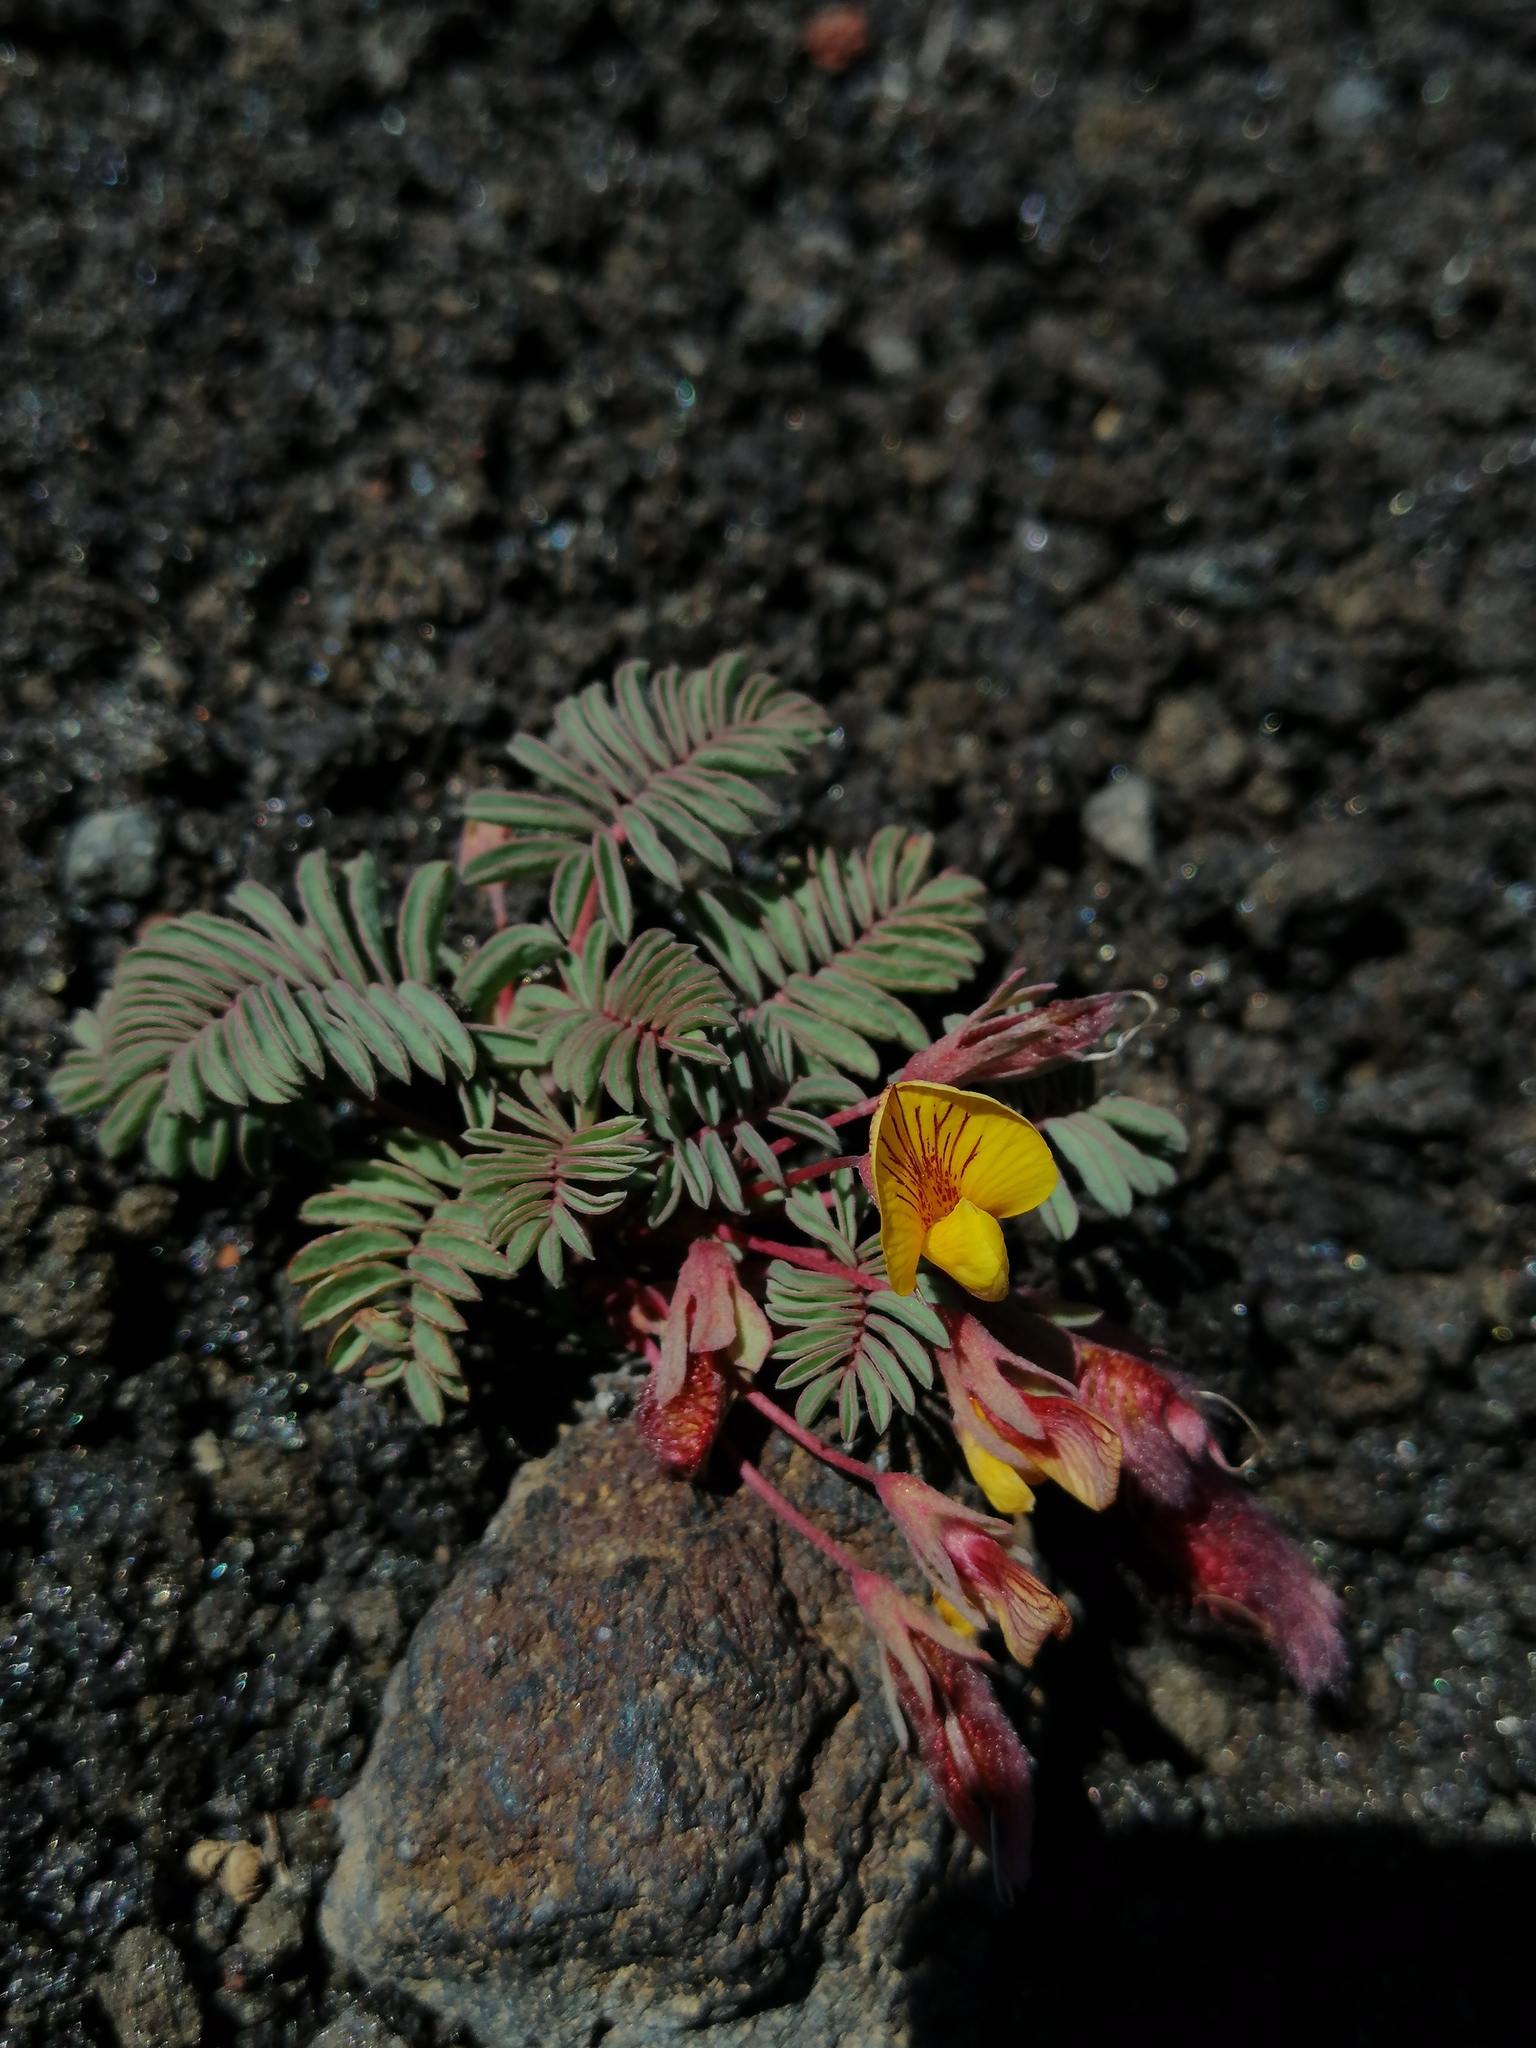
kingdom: Plantae
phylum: Tracheophyta
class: Magnoliopsida
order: Fabales
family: Fabaceae
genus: Adesmia
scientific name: Adesmia longipes
